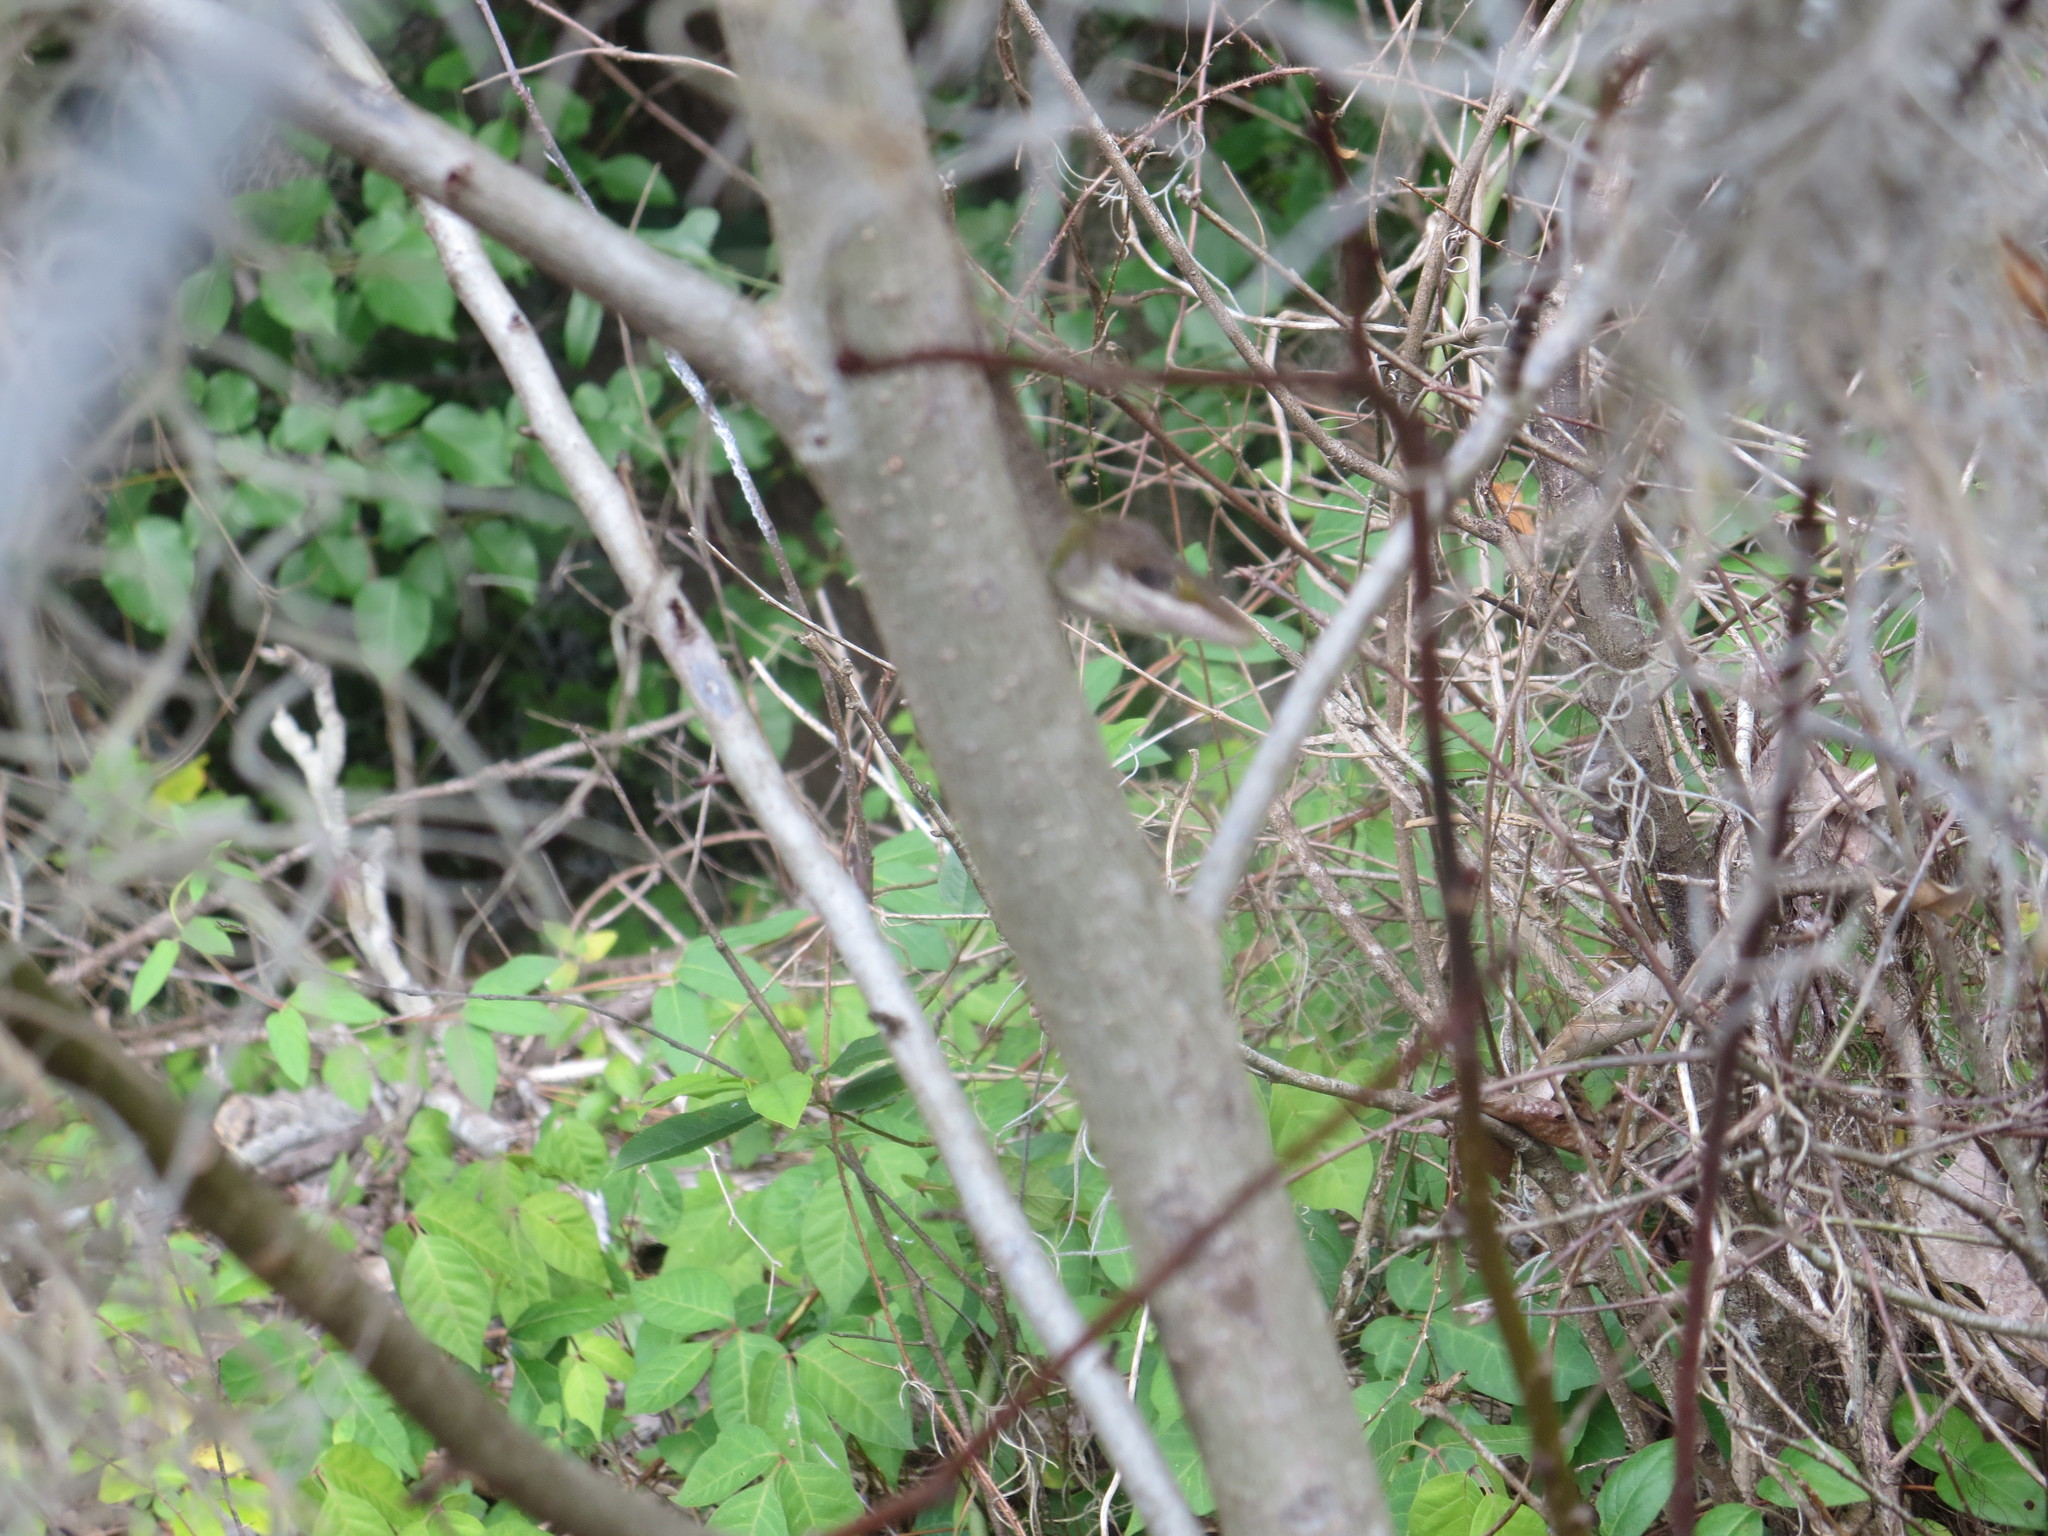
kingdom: Animalia
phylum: Chordata
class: Squamata
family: Dactyloidae
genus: Anolis
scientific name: Anolis carolinensis
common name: Green anole
